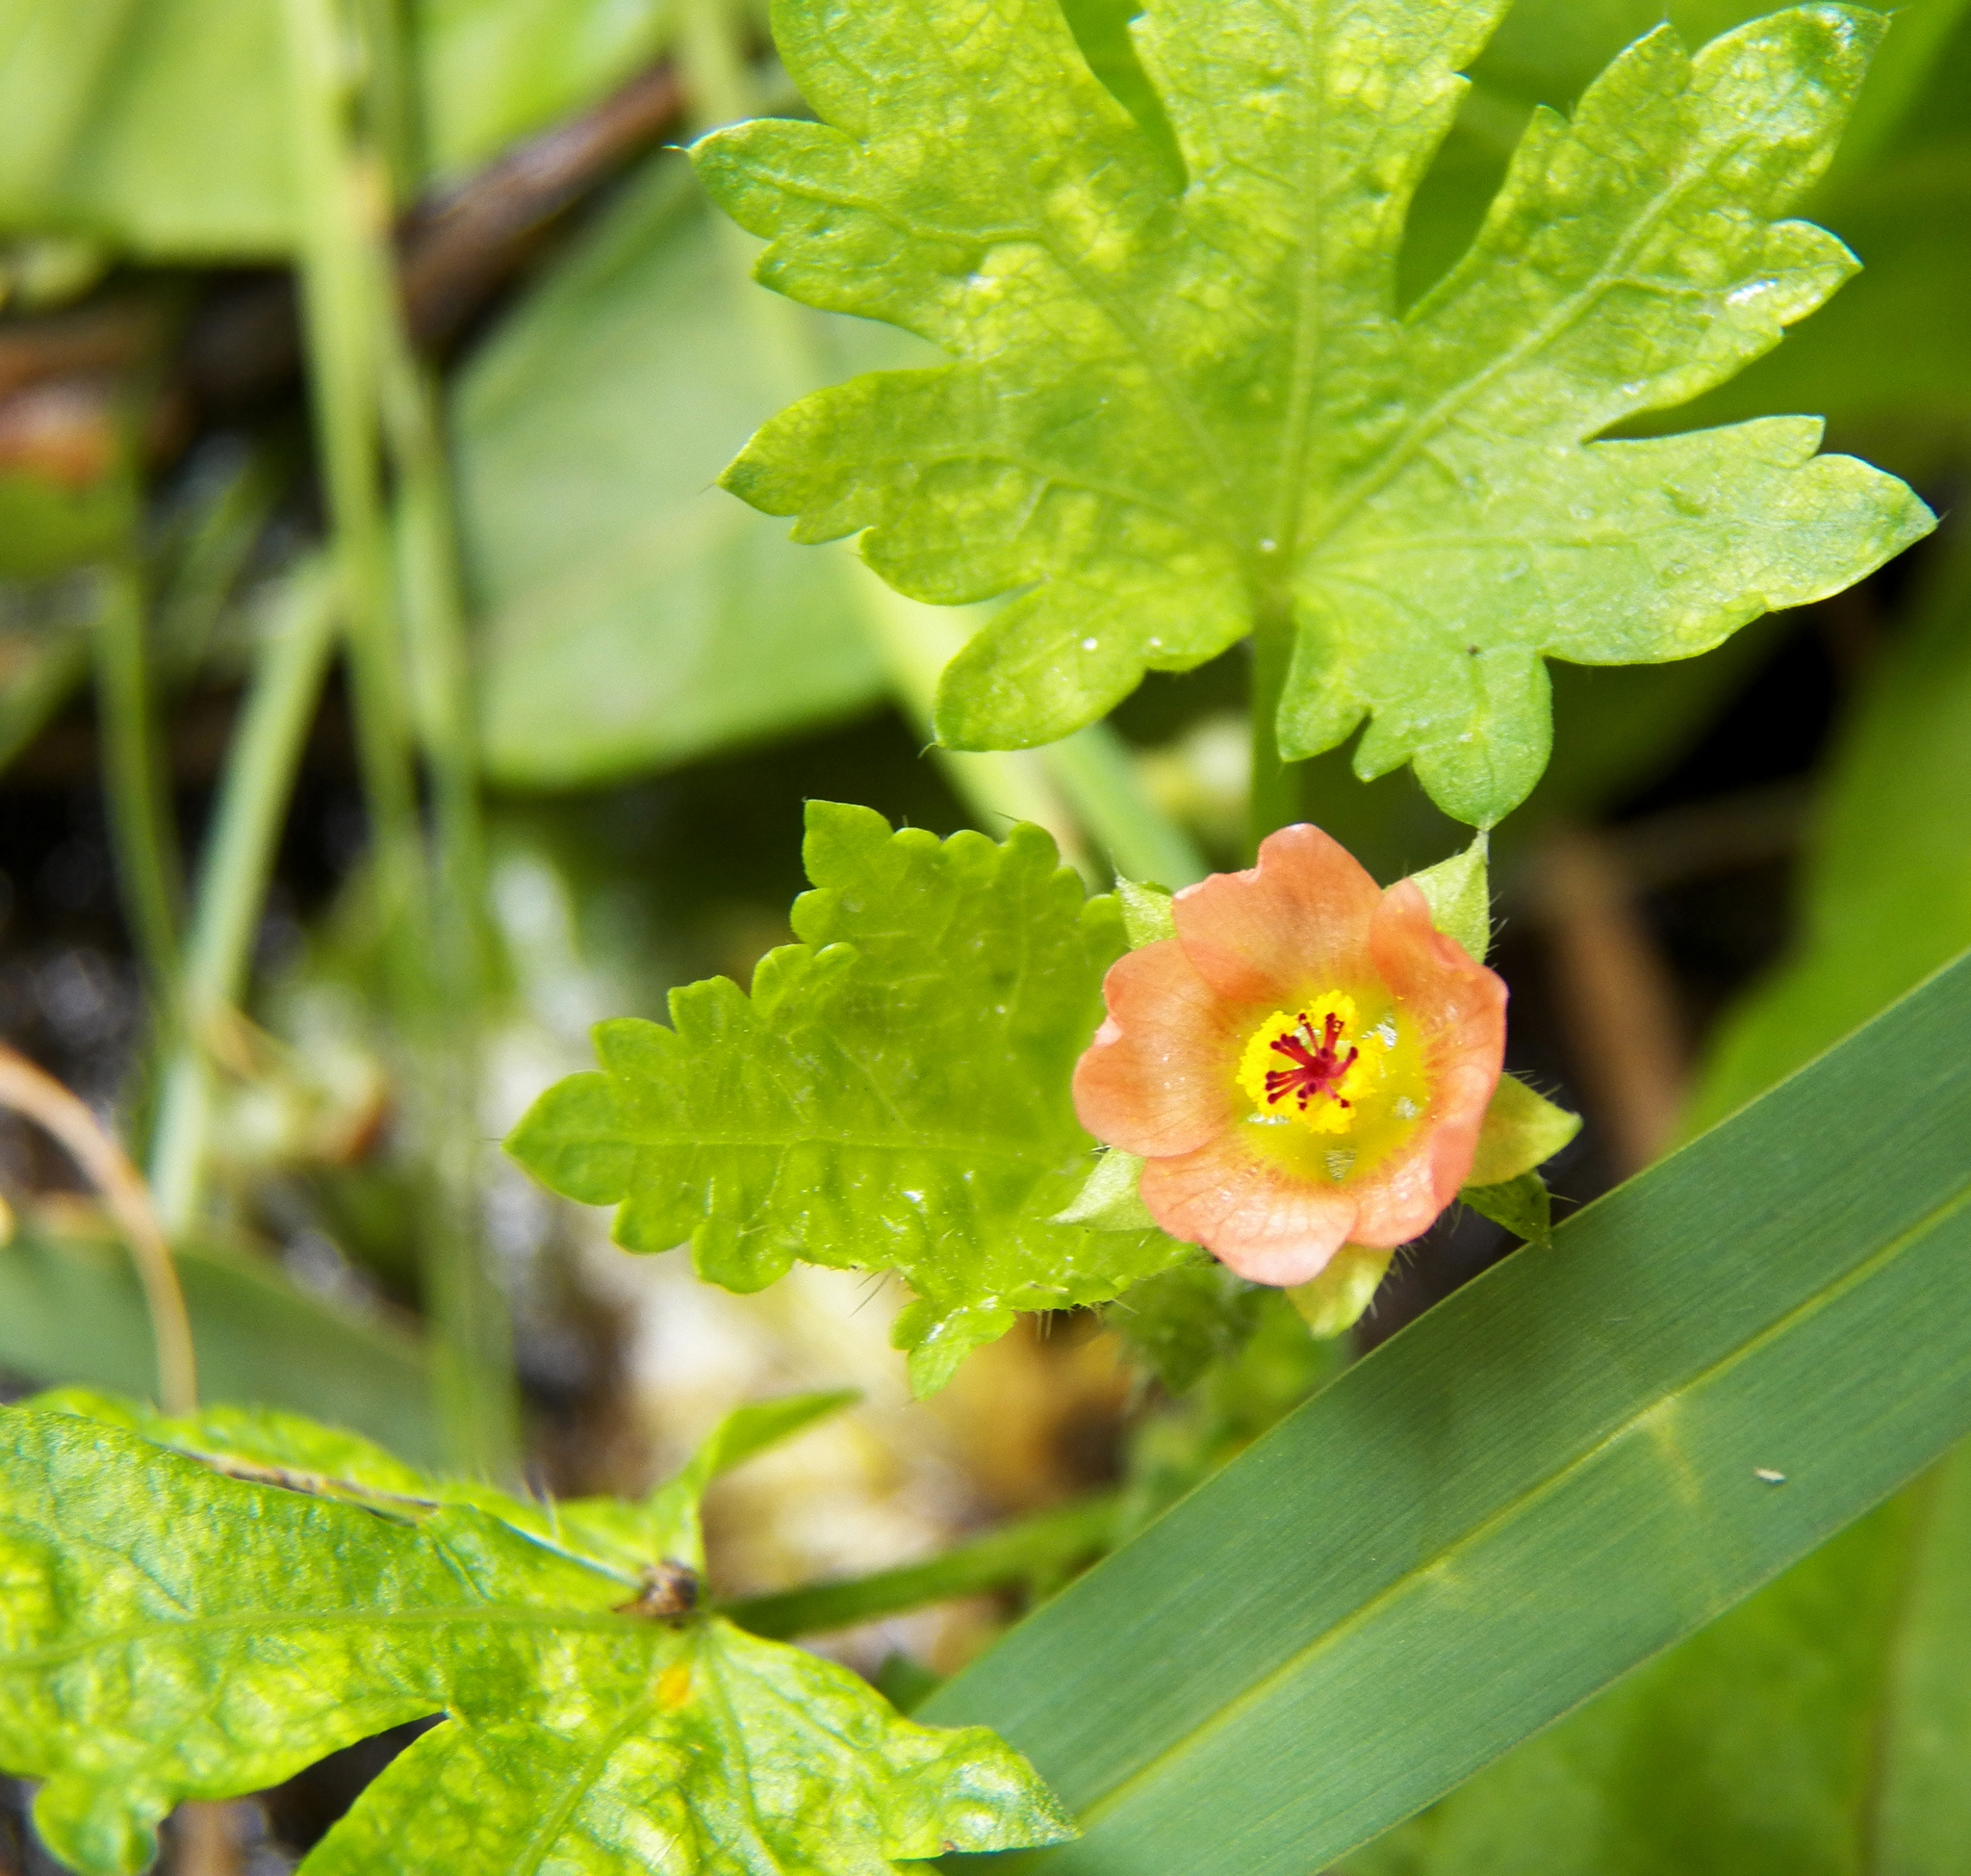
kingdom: Plantae
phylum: Tracheophyta
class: Magnoliopsida
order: Malvales
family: Malvaceae
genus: Modiola
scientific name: Modiola caroliniana
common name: Carolina bristlemallow
